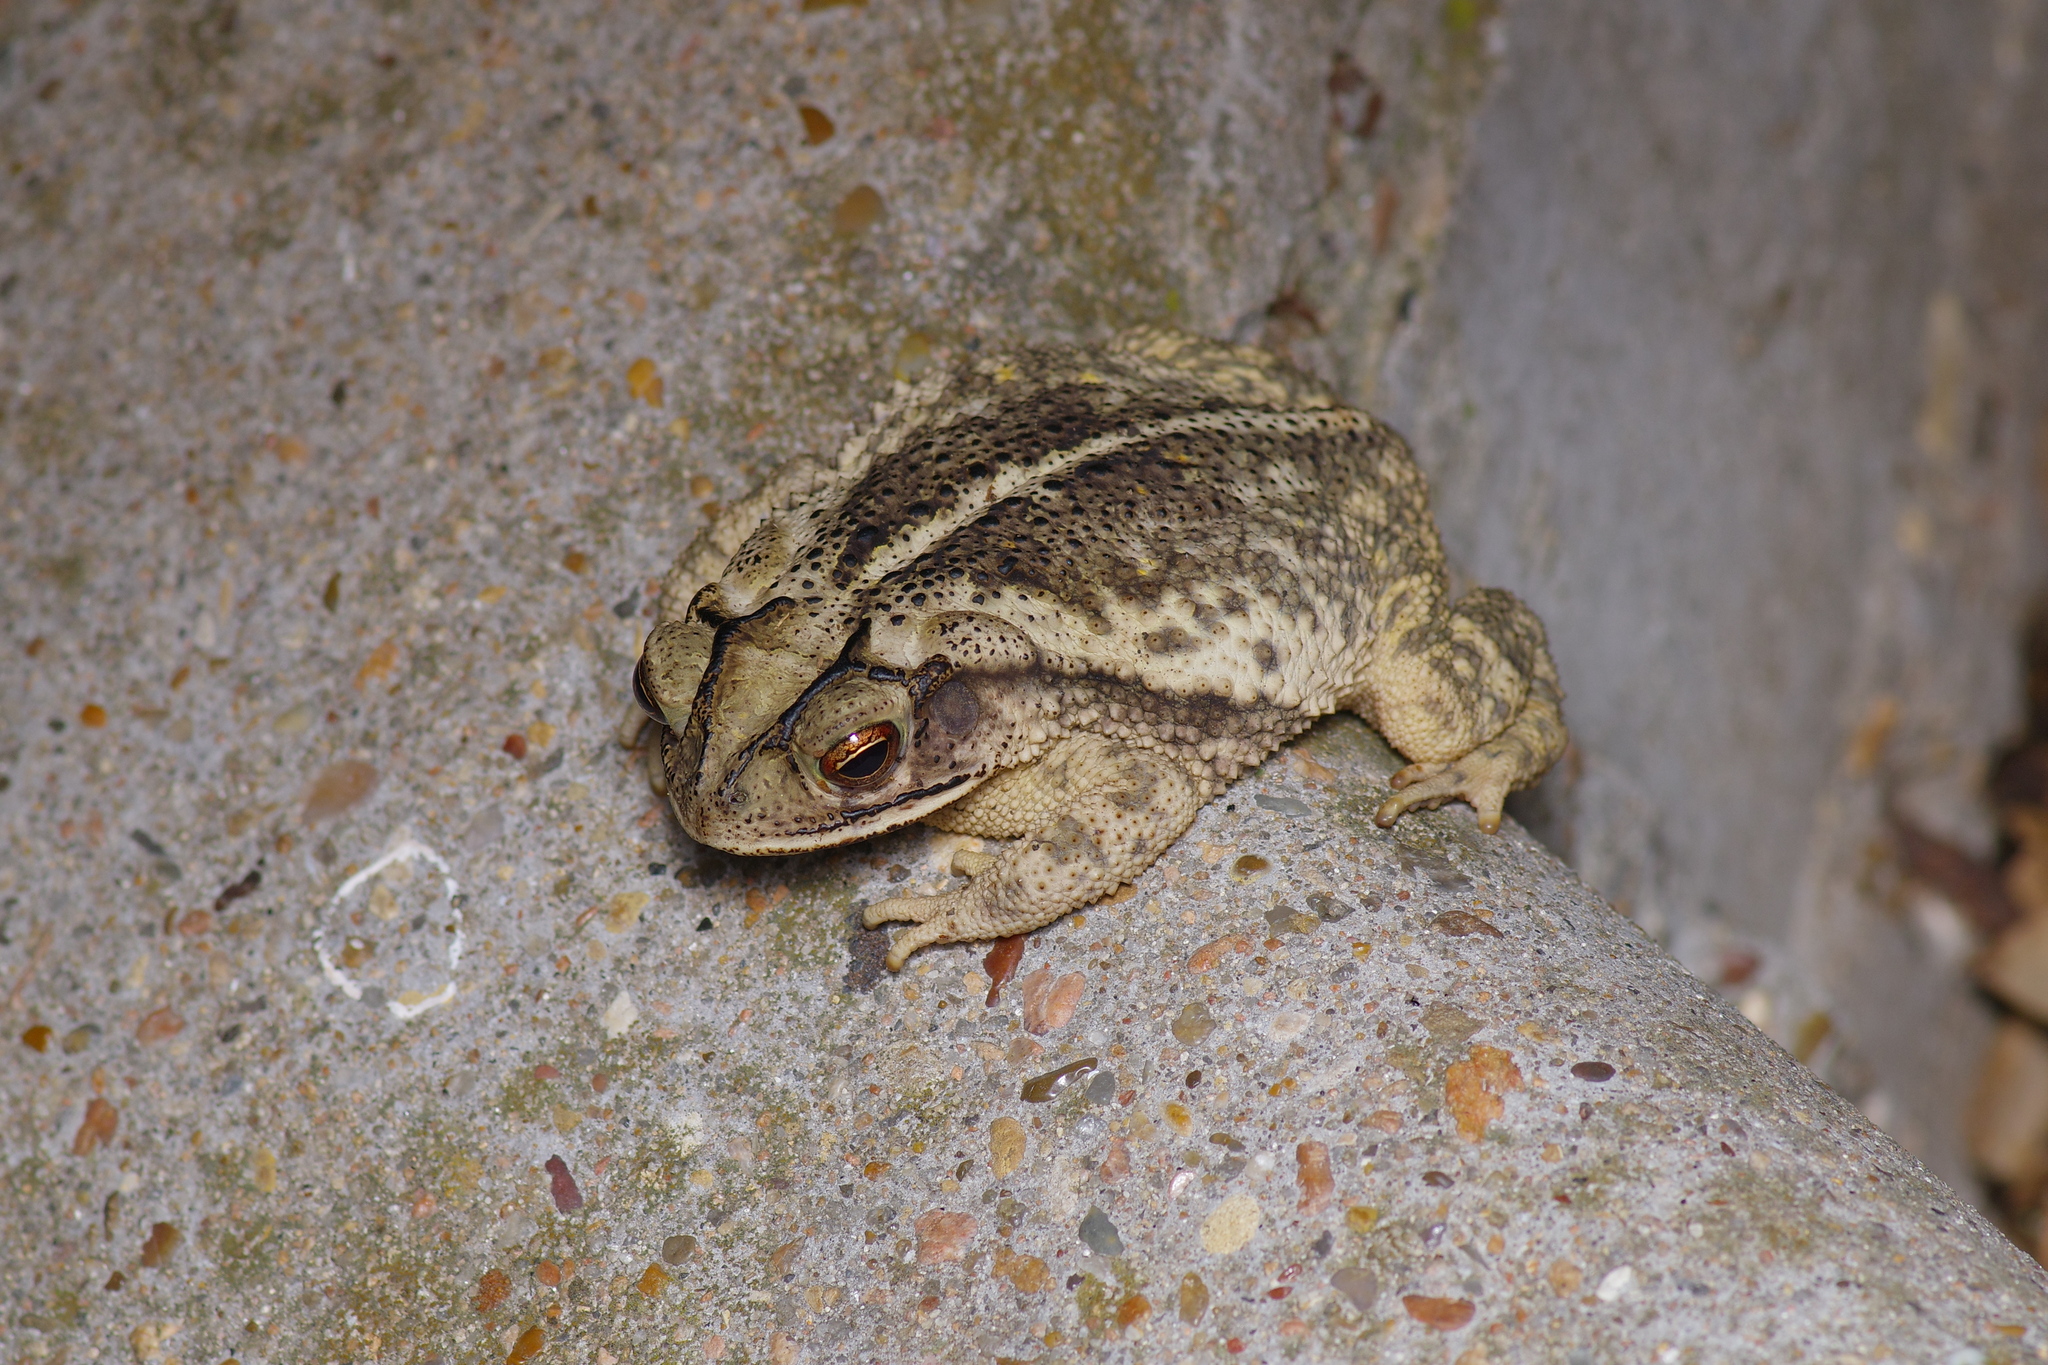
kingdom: Animalia
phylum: Chordata
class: Amphibia
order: Anura
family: Bufonidae
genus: Incilius
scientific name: Incilius nebulifer
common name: Gulf coast toad
